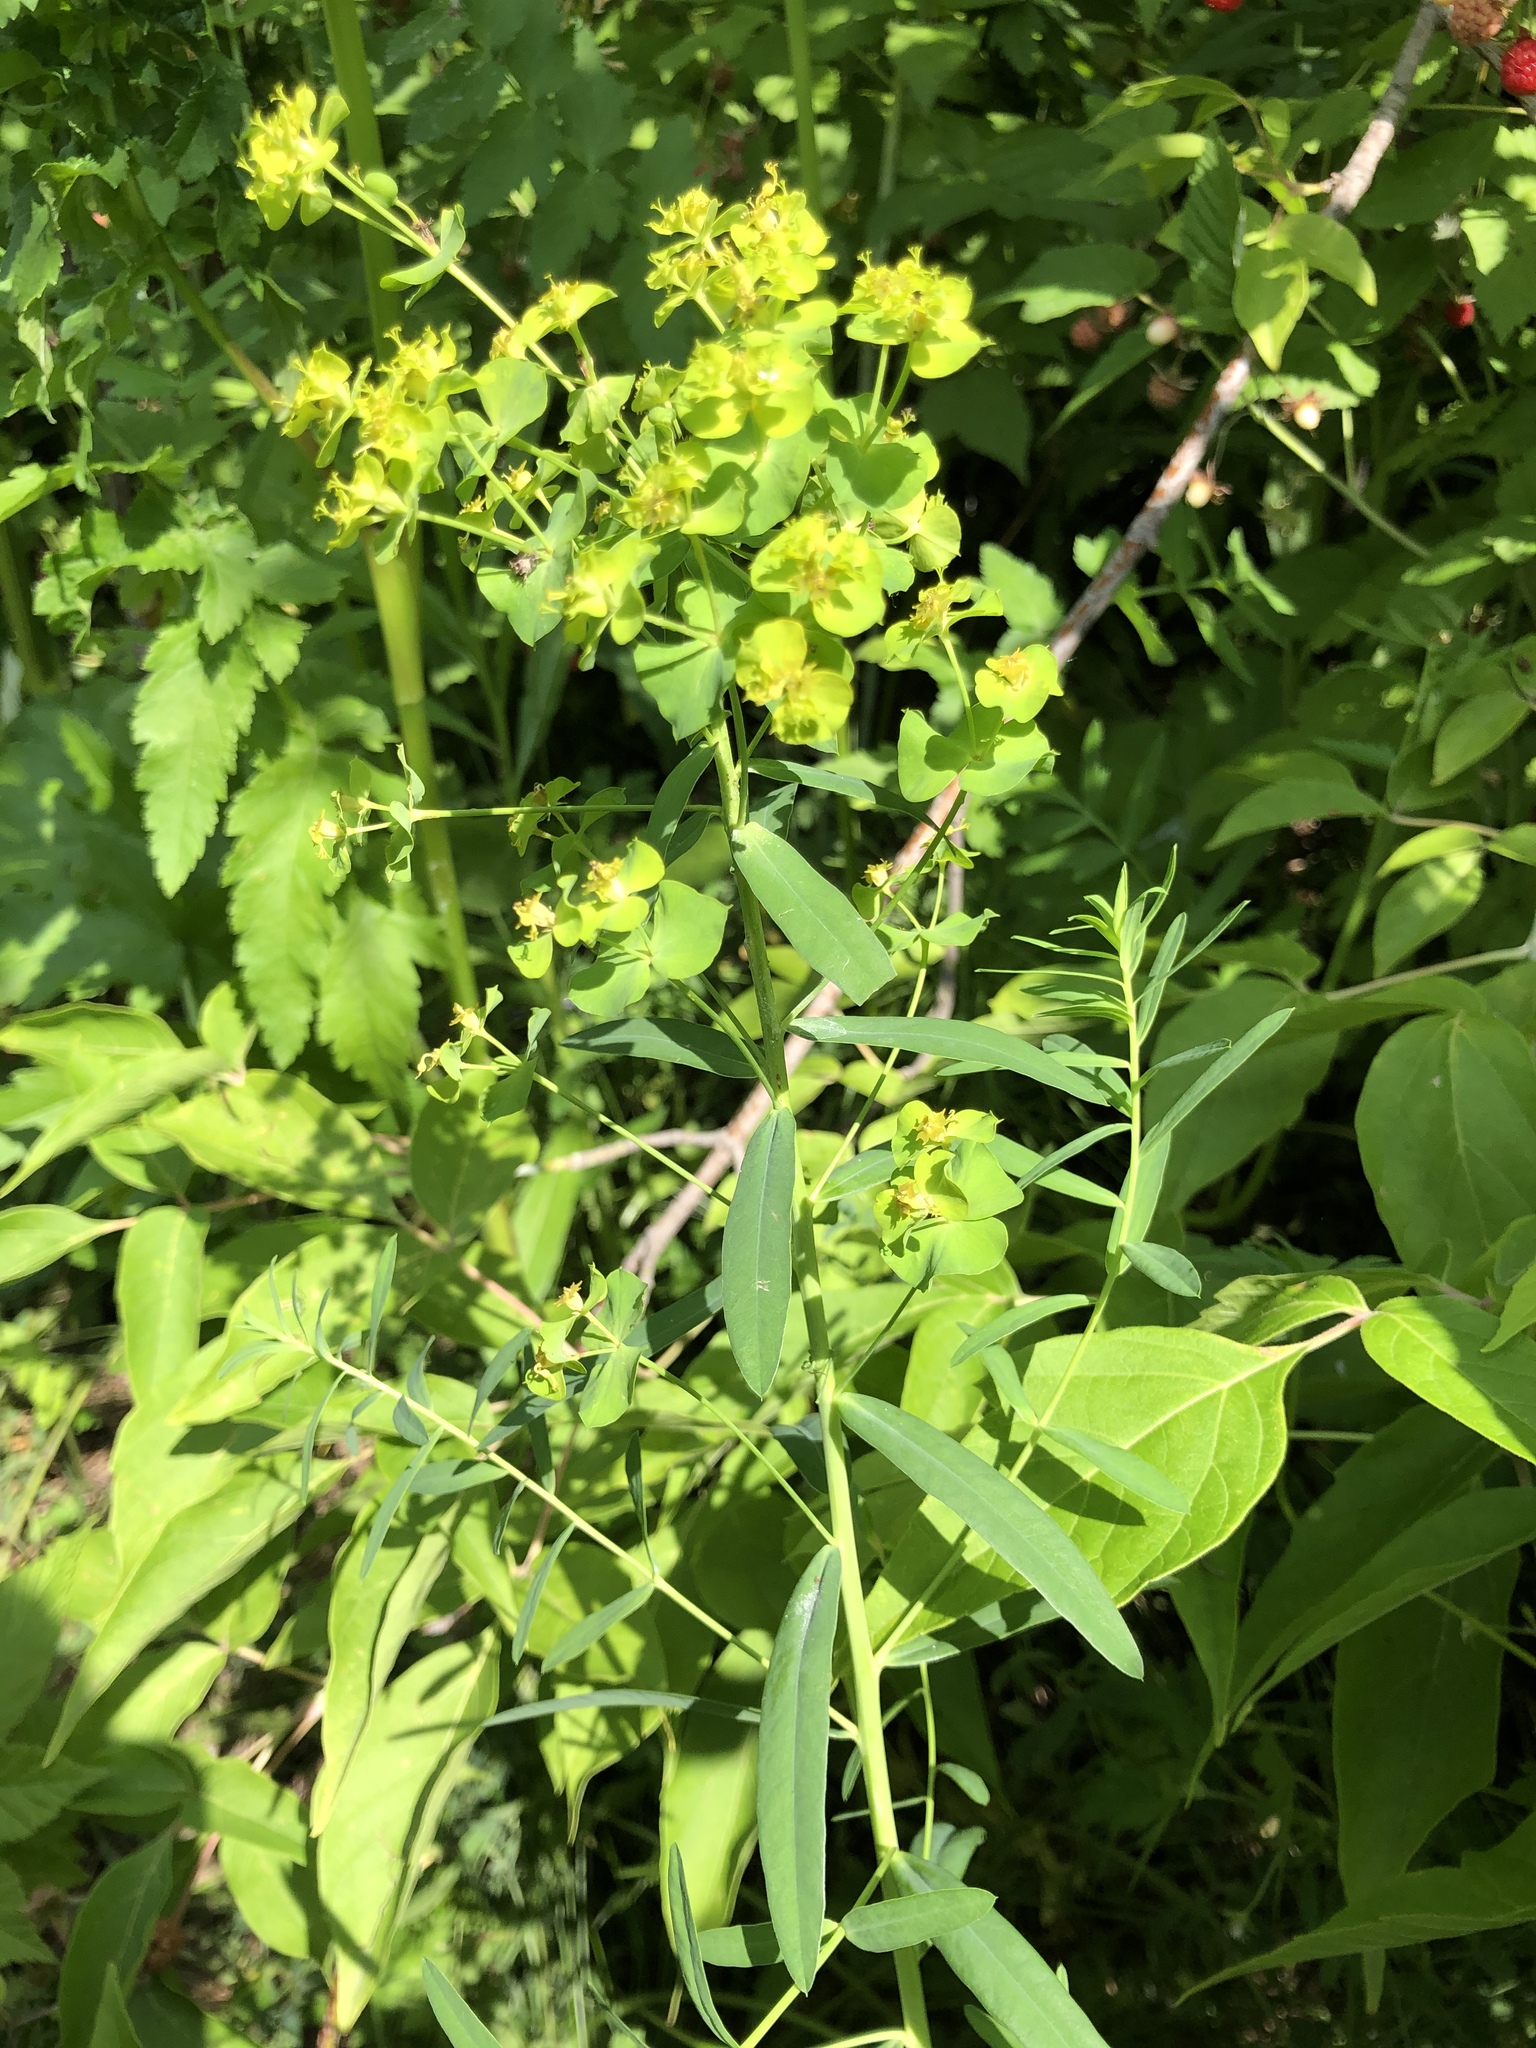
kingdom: Plantae
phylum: Tracheophyta
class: Magnoliopsida
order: Malpighiales
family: Euphorbiaceae
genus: Euphorbia
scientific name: Euphorbia virgata
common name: Leafy spurge
